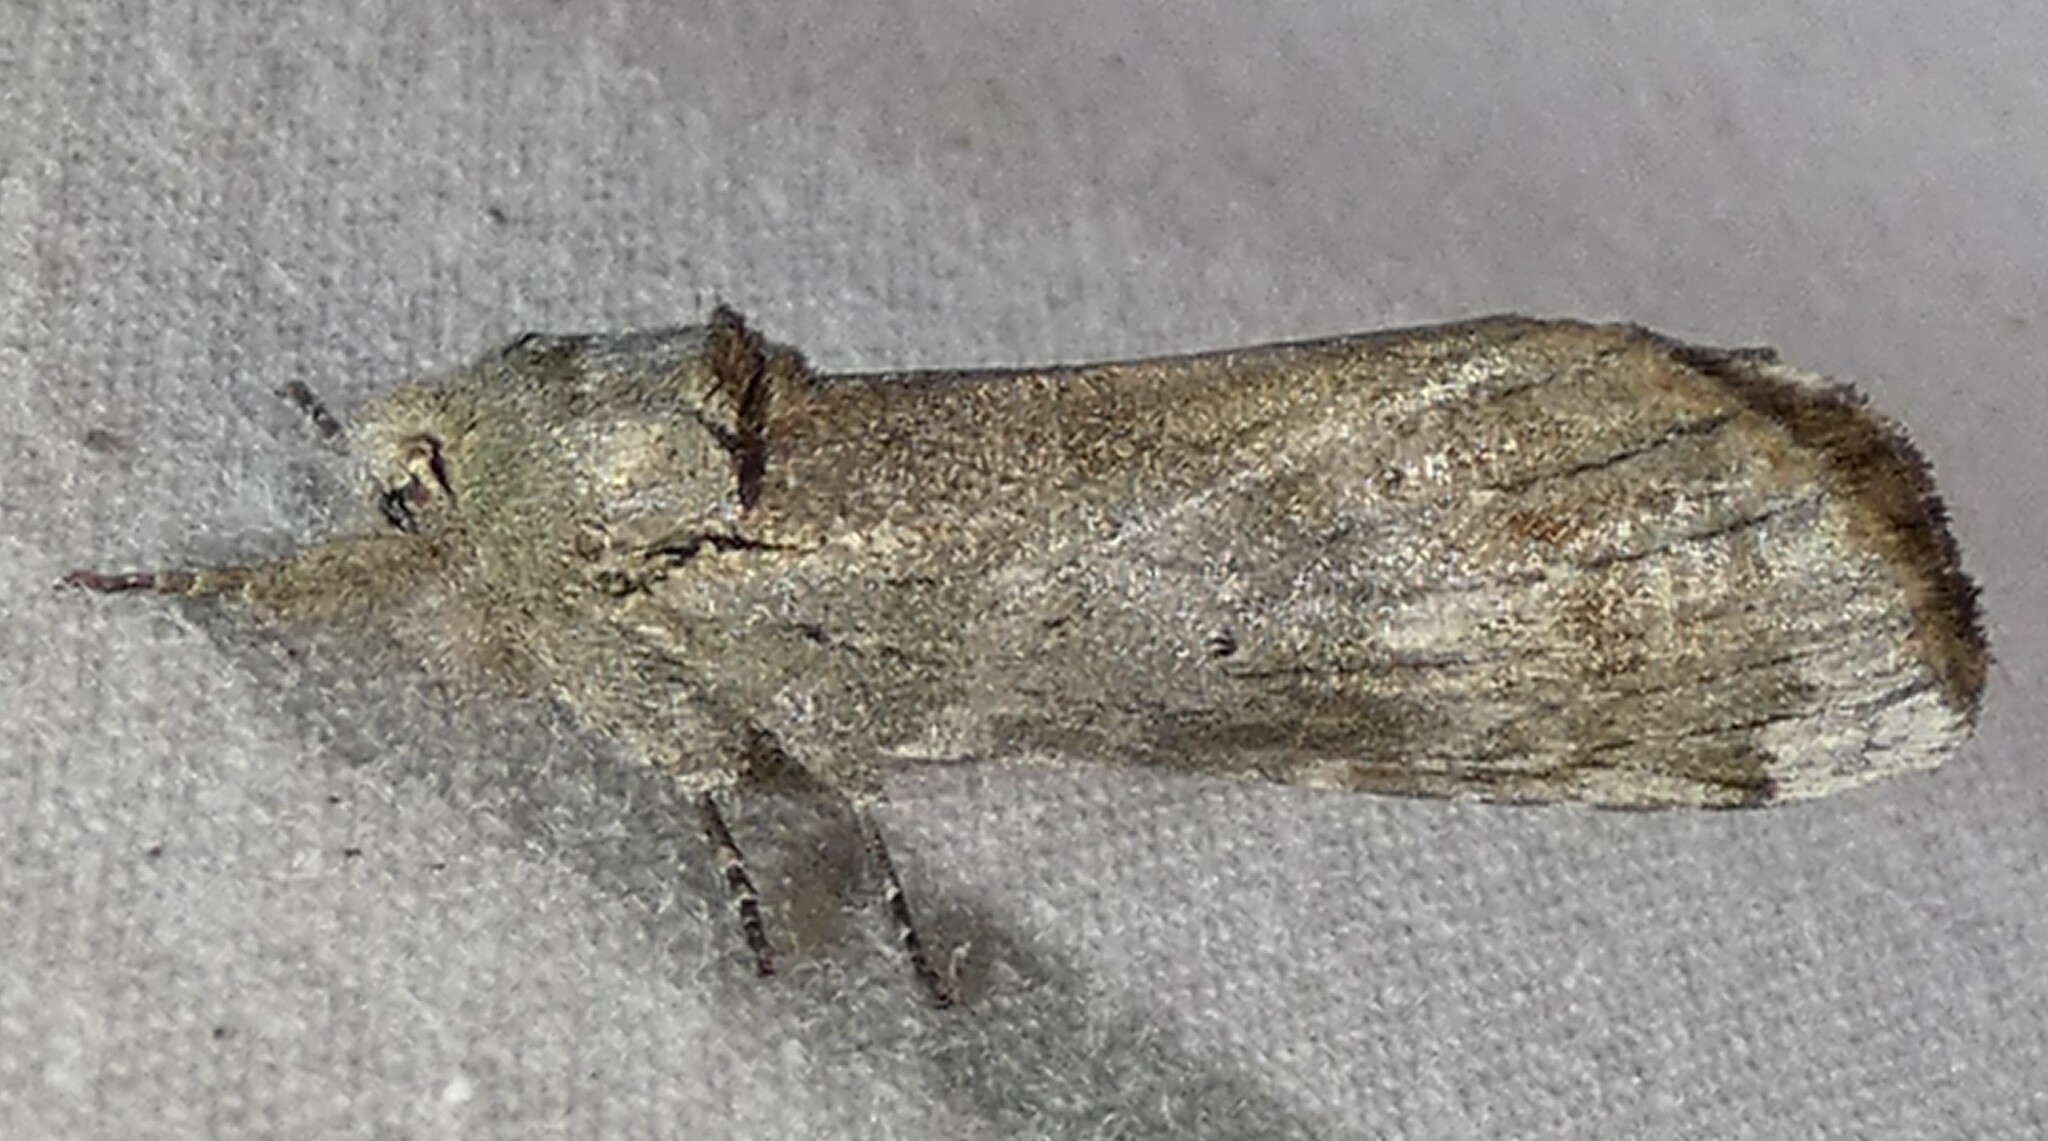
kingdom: Animalia
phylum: Arthropoda
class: Insecta
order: Lepidoptera
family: Notodontidae
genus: Schizura
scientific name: Schizura
